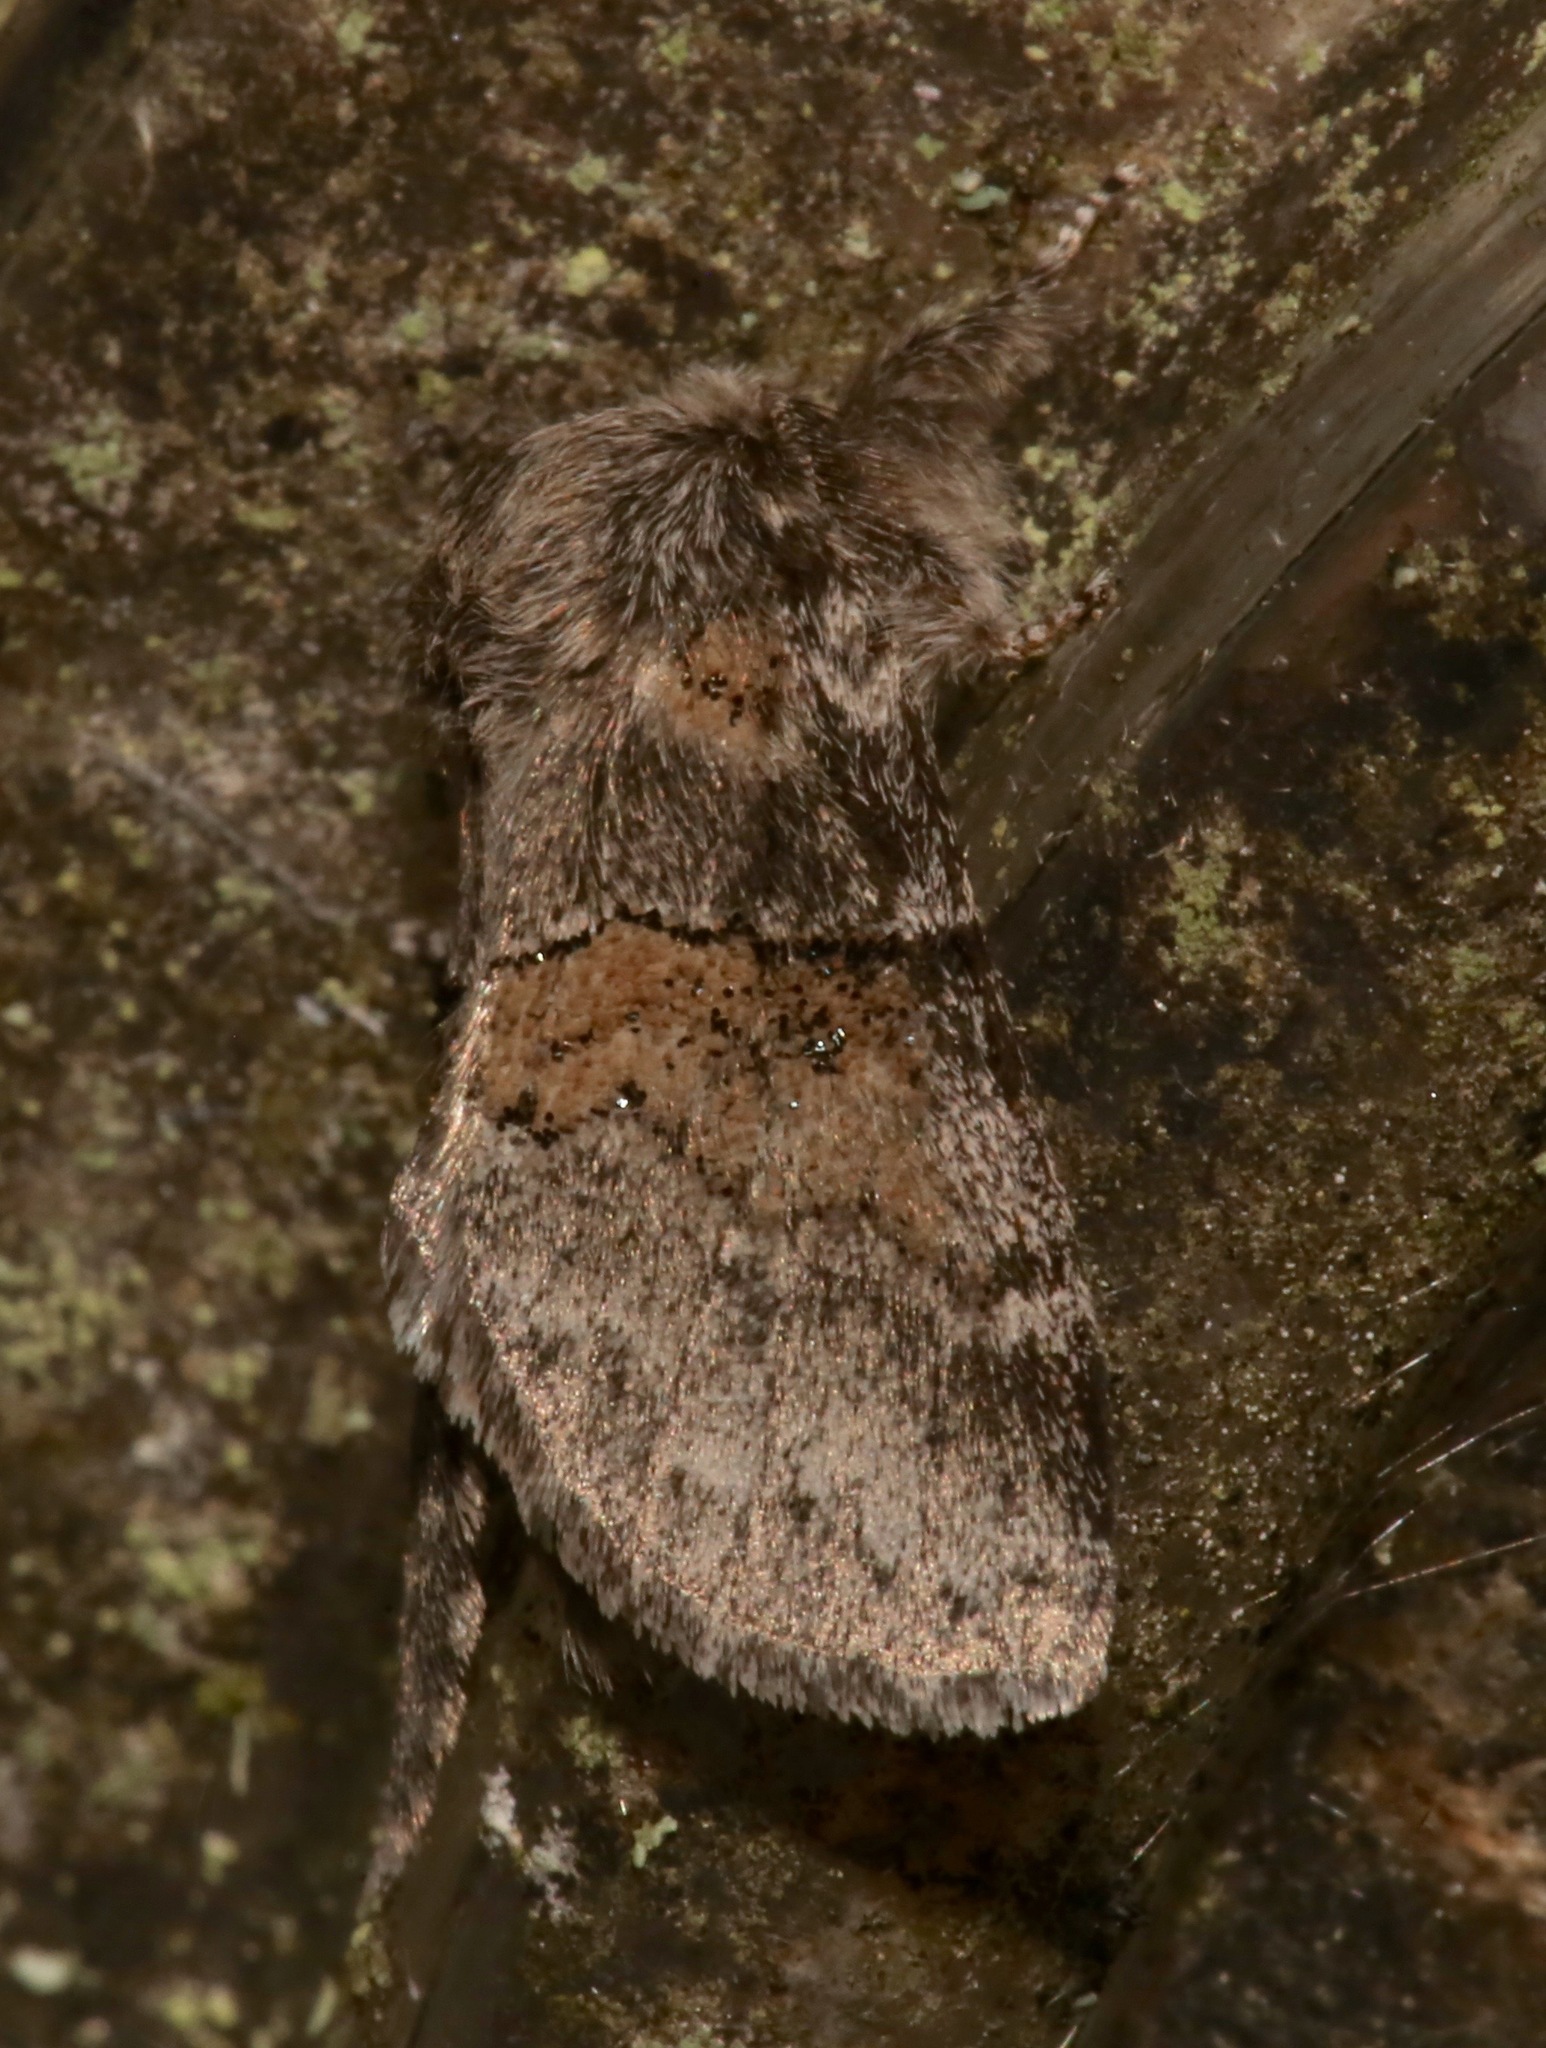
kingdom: Animalia
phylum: Arthropoda
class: Insecta
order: Lepidoptera
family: Notodontidae
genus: Gluphisia
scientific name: Gluphisia septentrionis
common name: Common gluphisia
